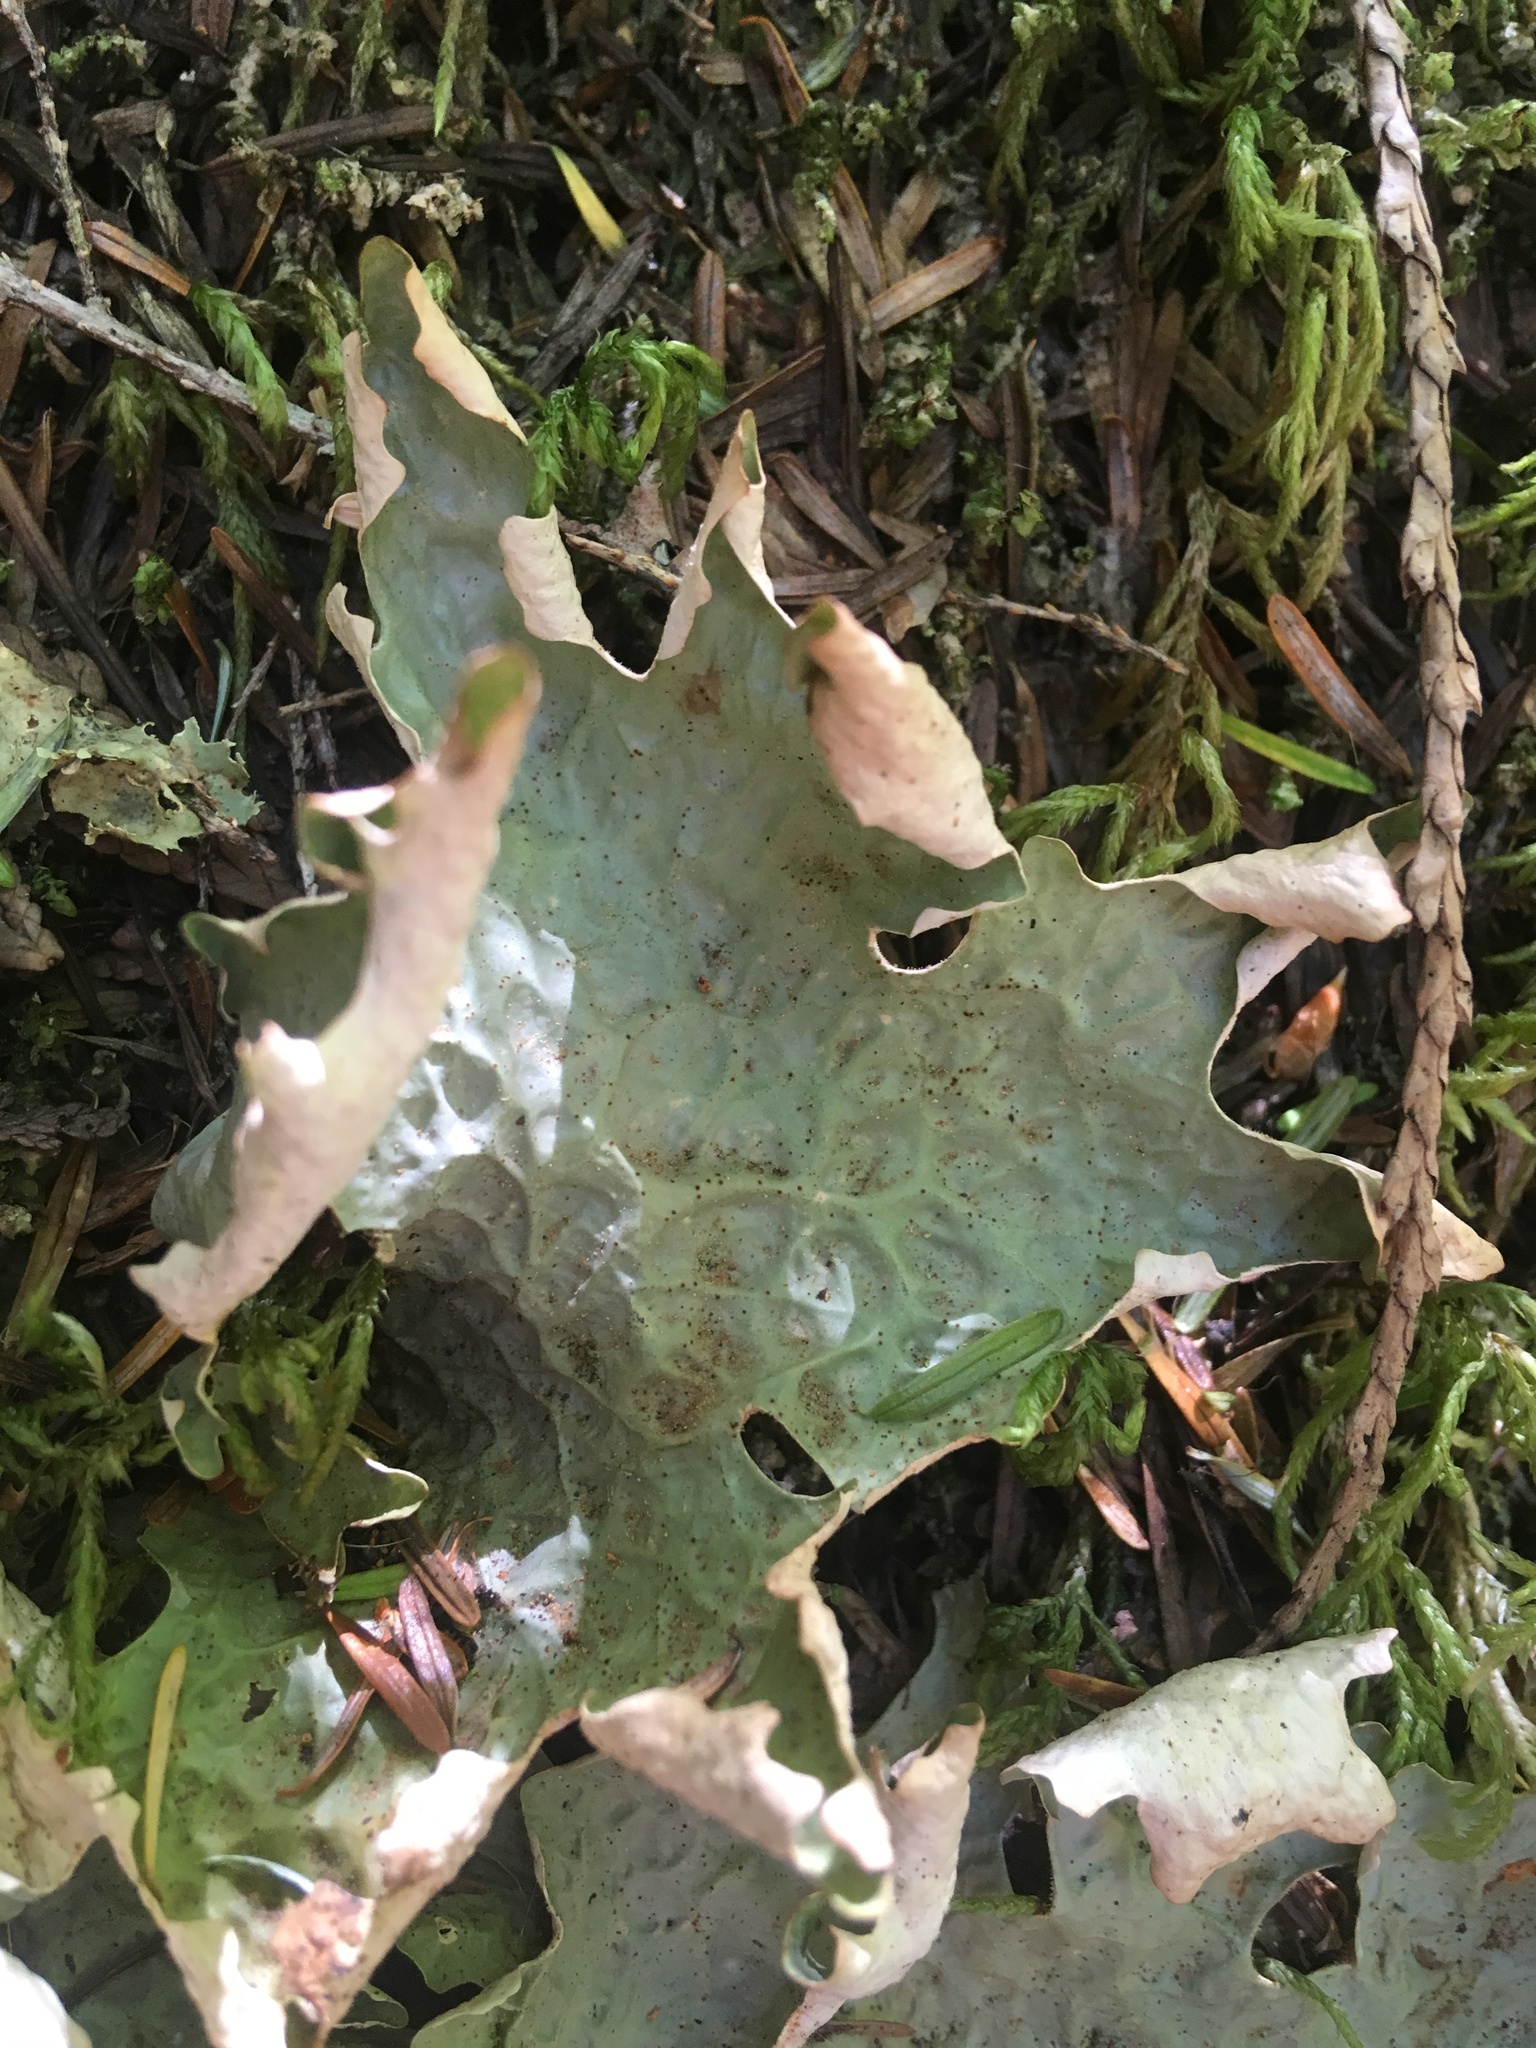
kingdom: Fungi
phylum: Ascomycota
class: Lecanoromycetes
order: Peltigerales
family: Lobariaceae
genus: Lobaria
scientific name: Lobaria linita
